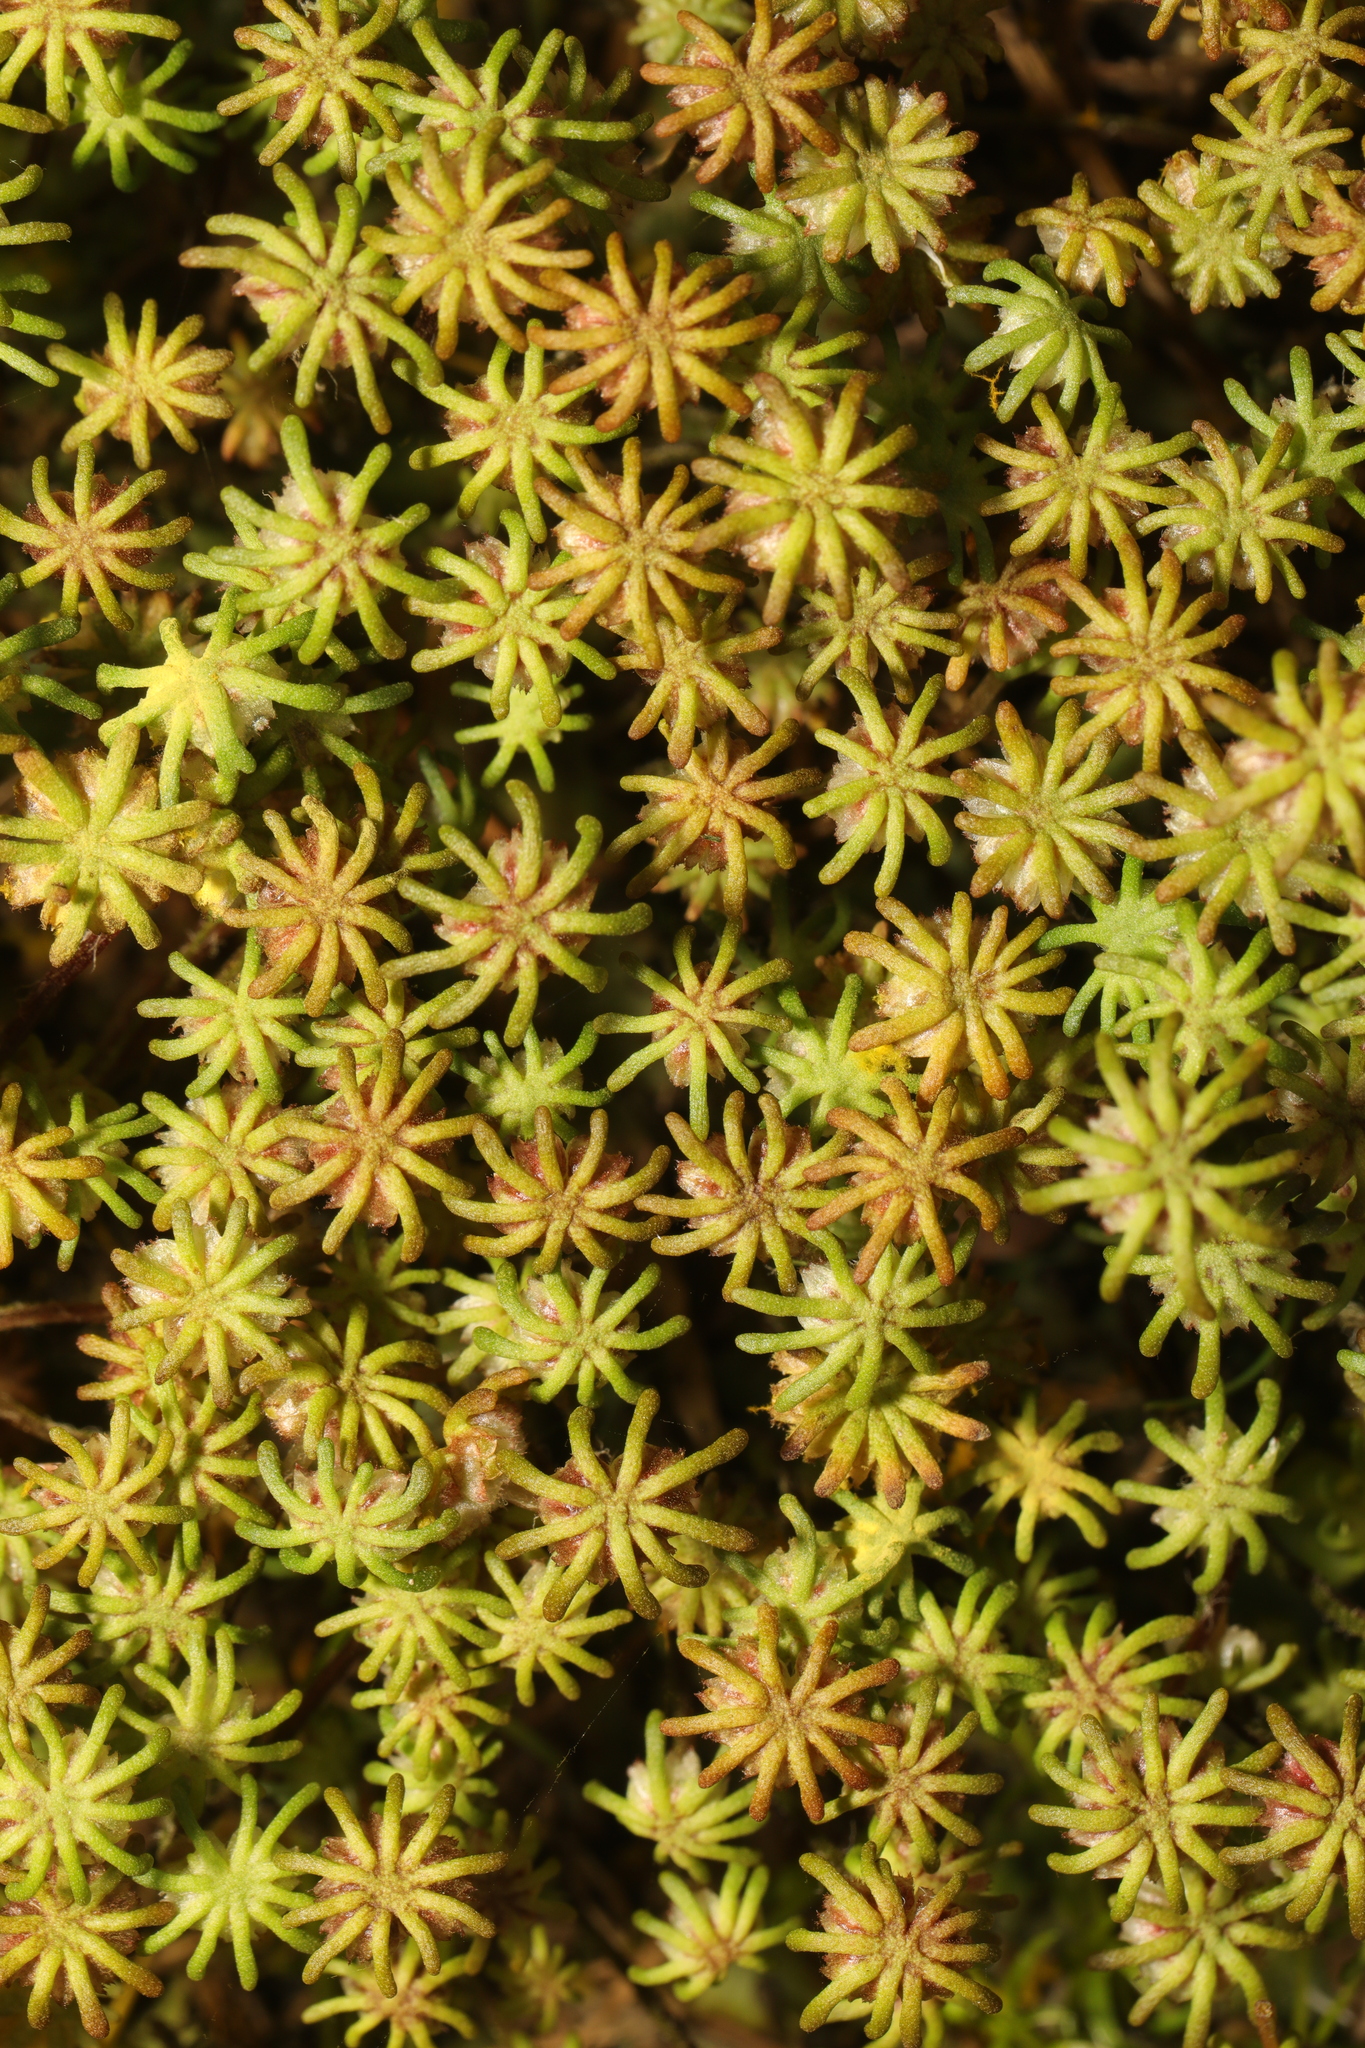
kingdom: Plantae
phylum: Marchantiophyta
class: Marchantiopsida
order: Marchantiales
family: Marchantiaceae
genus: Marchantia
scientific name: Marchantia polymorpha
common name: Common liverwort
